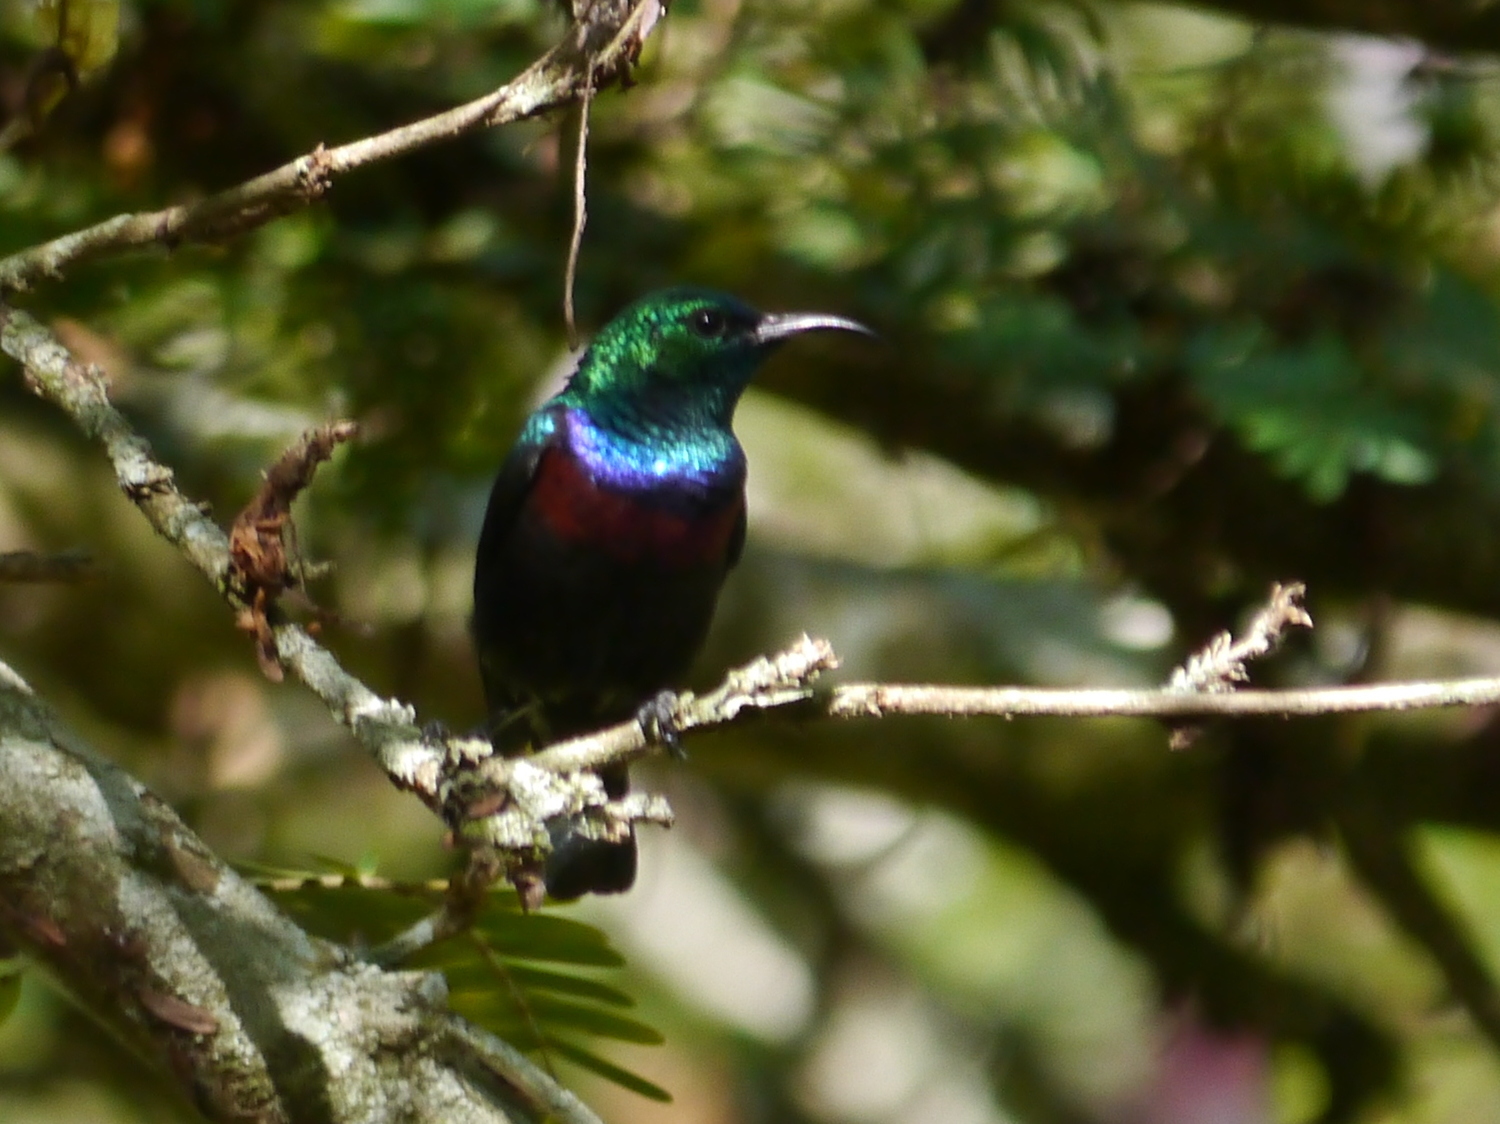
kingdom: Animalia
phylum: Chordata
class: Aves
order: Passeriformes
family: Nectariniidae
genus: Cinnyris
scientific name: Cinnyris mariquensis
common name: Marico sunbird
